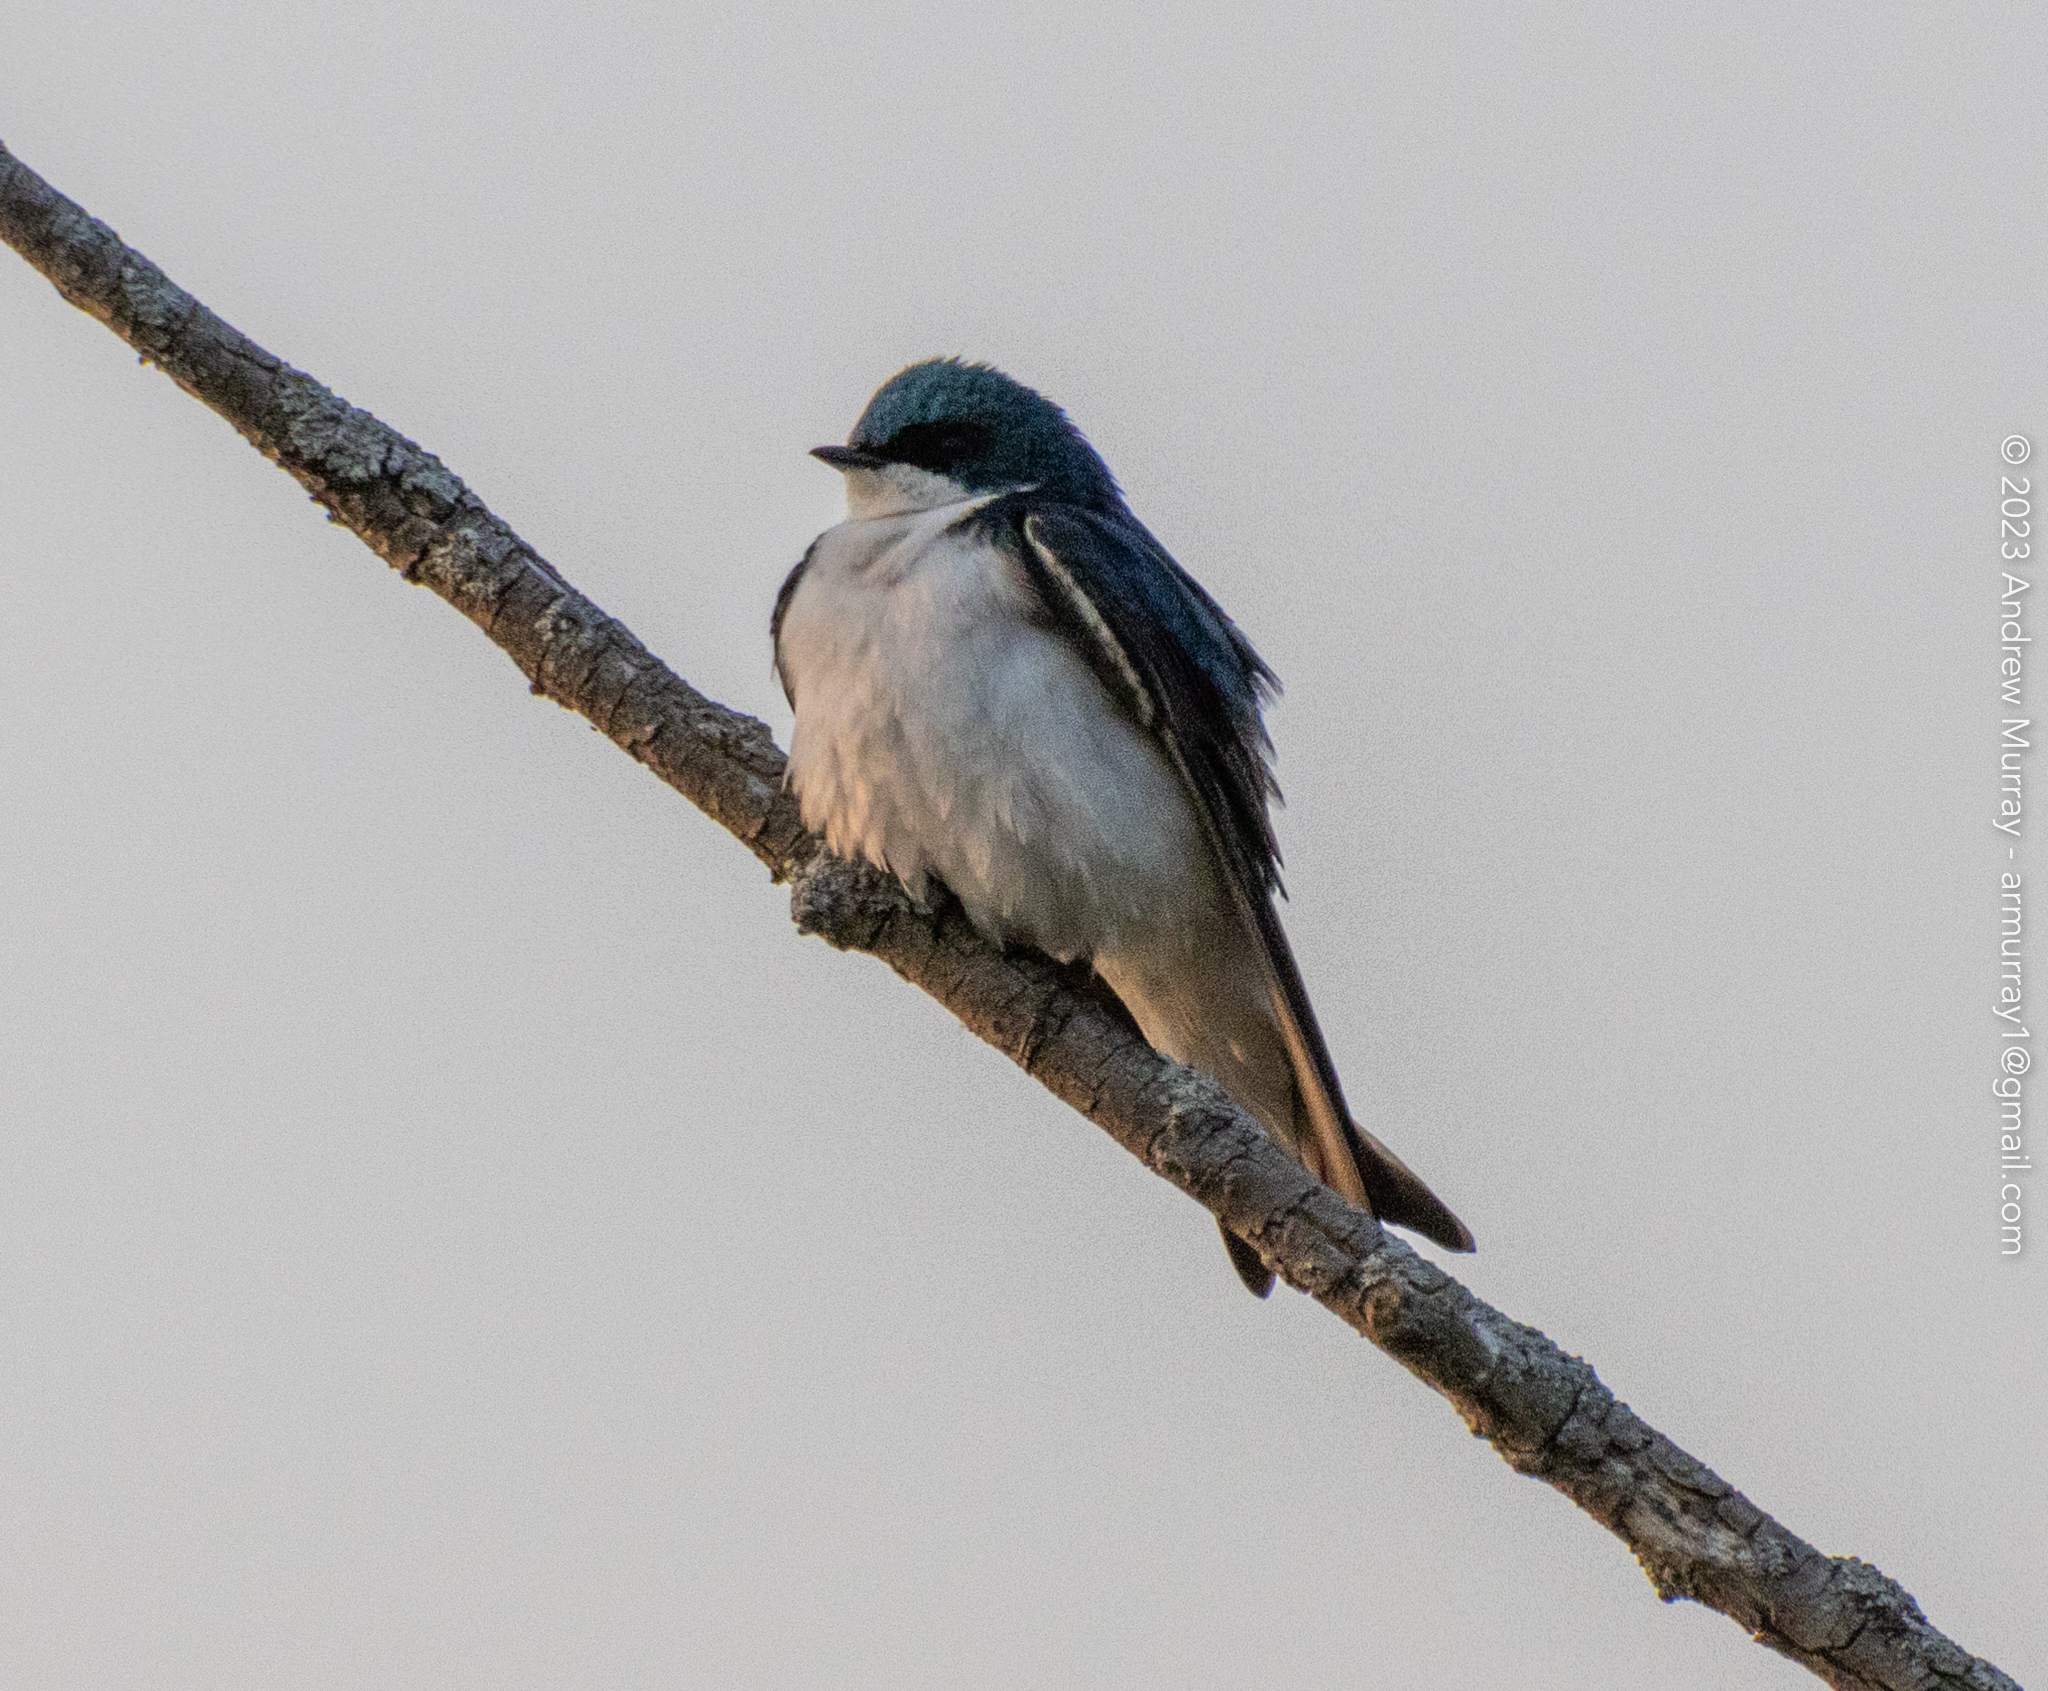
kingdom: Animalia
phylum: Chordata
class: Aves
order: Passeriformes
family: Hirundinidae
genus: Tachycineta
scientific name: Tachycineta bicolor
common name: Tree swallow
